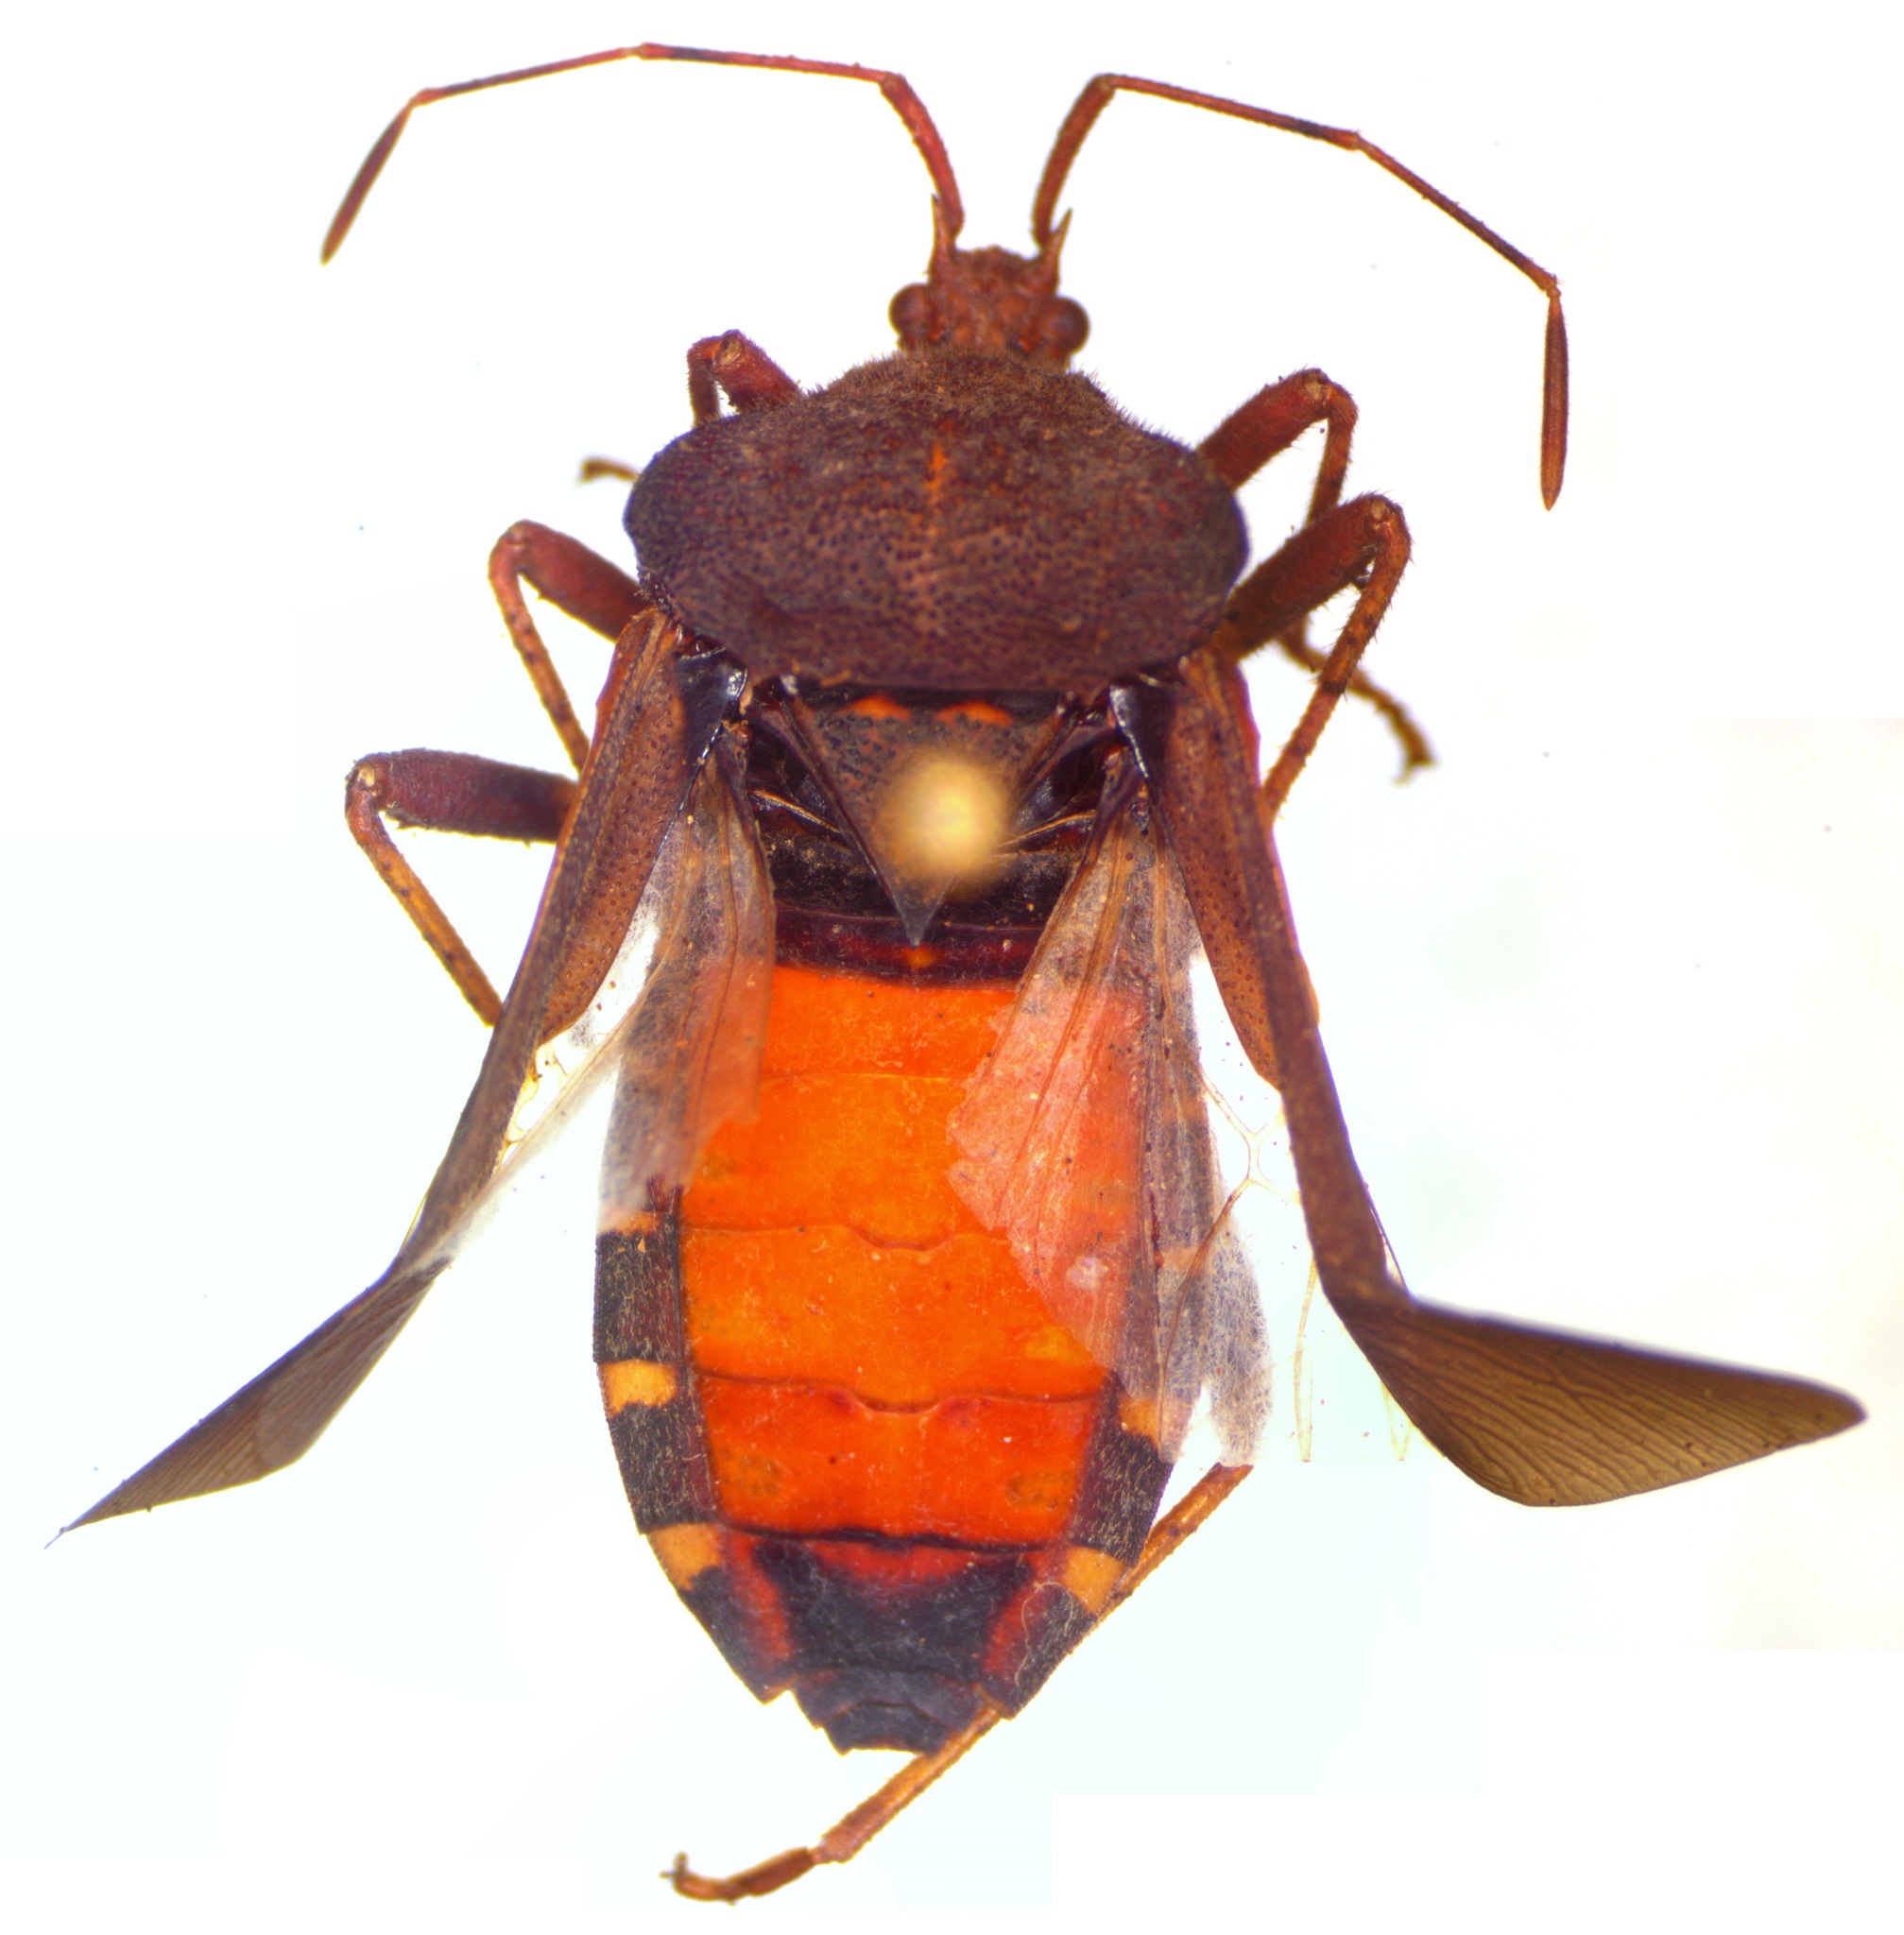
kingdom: Animalia
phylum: Arthropoda
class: Insecta
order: Hemiptera
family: Coreidae
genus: Anasa
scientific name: Anasa scorbutica
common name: Squash bug
